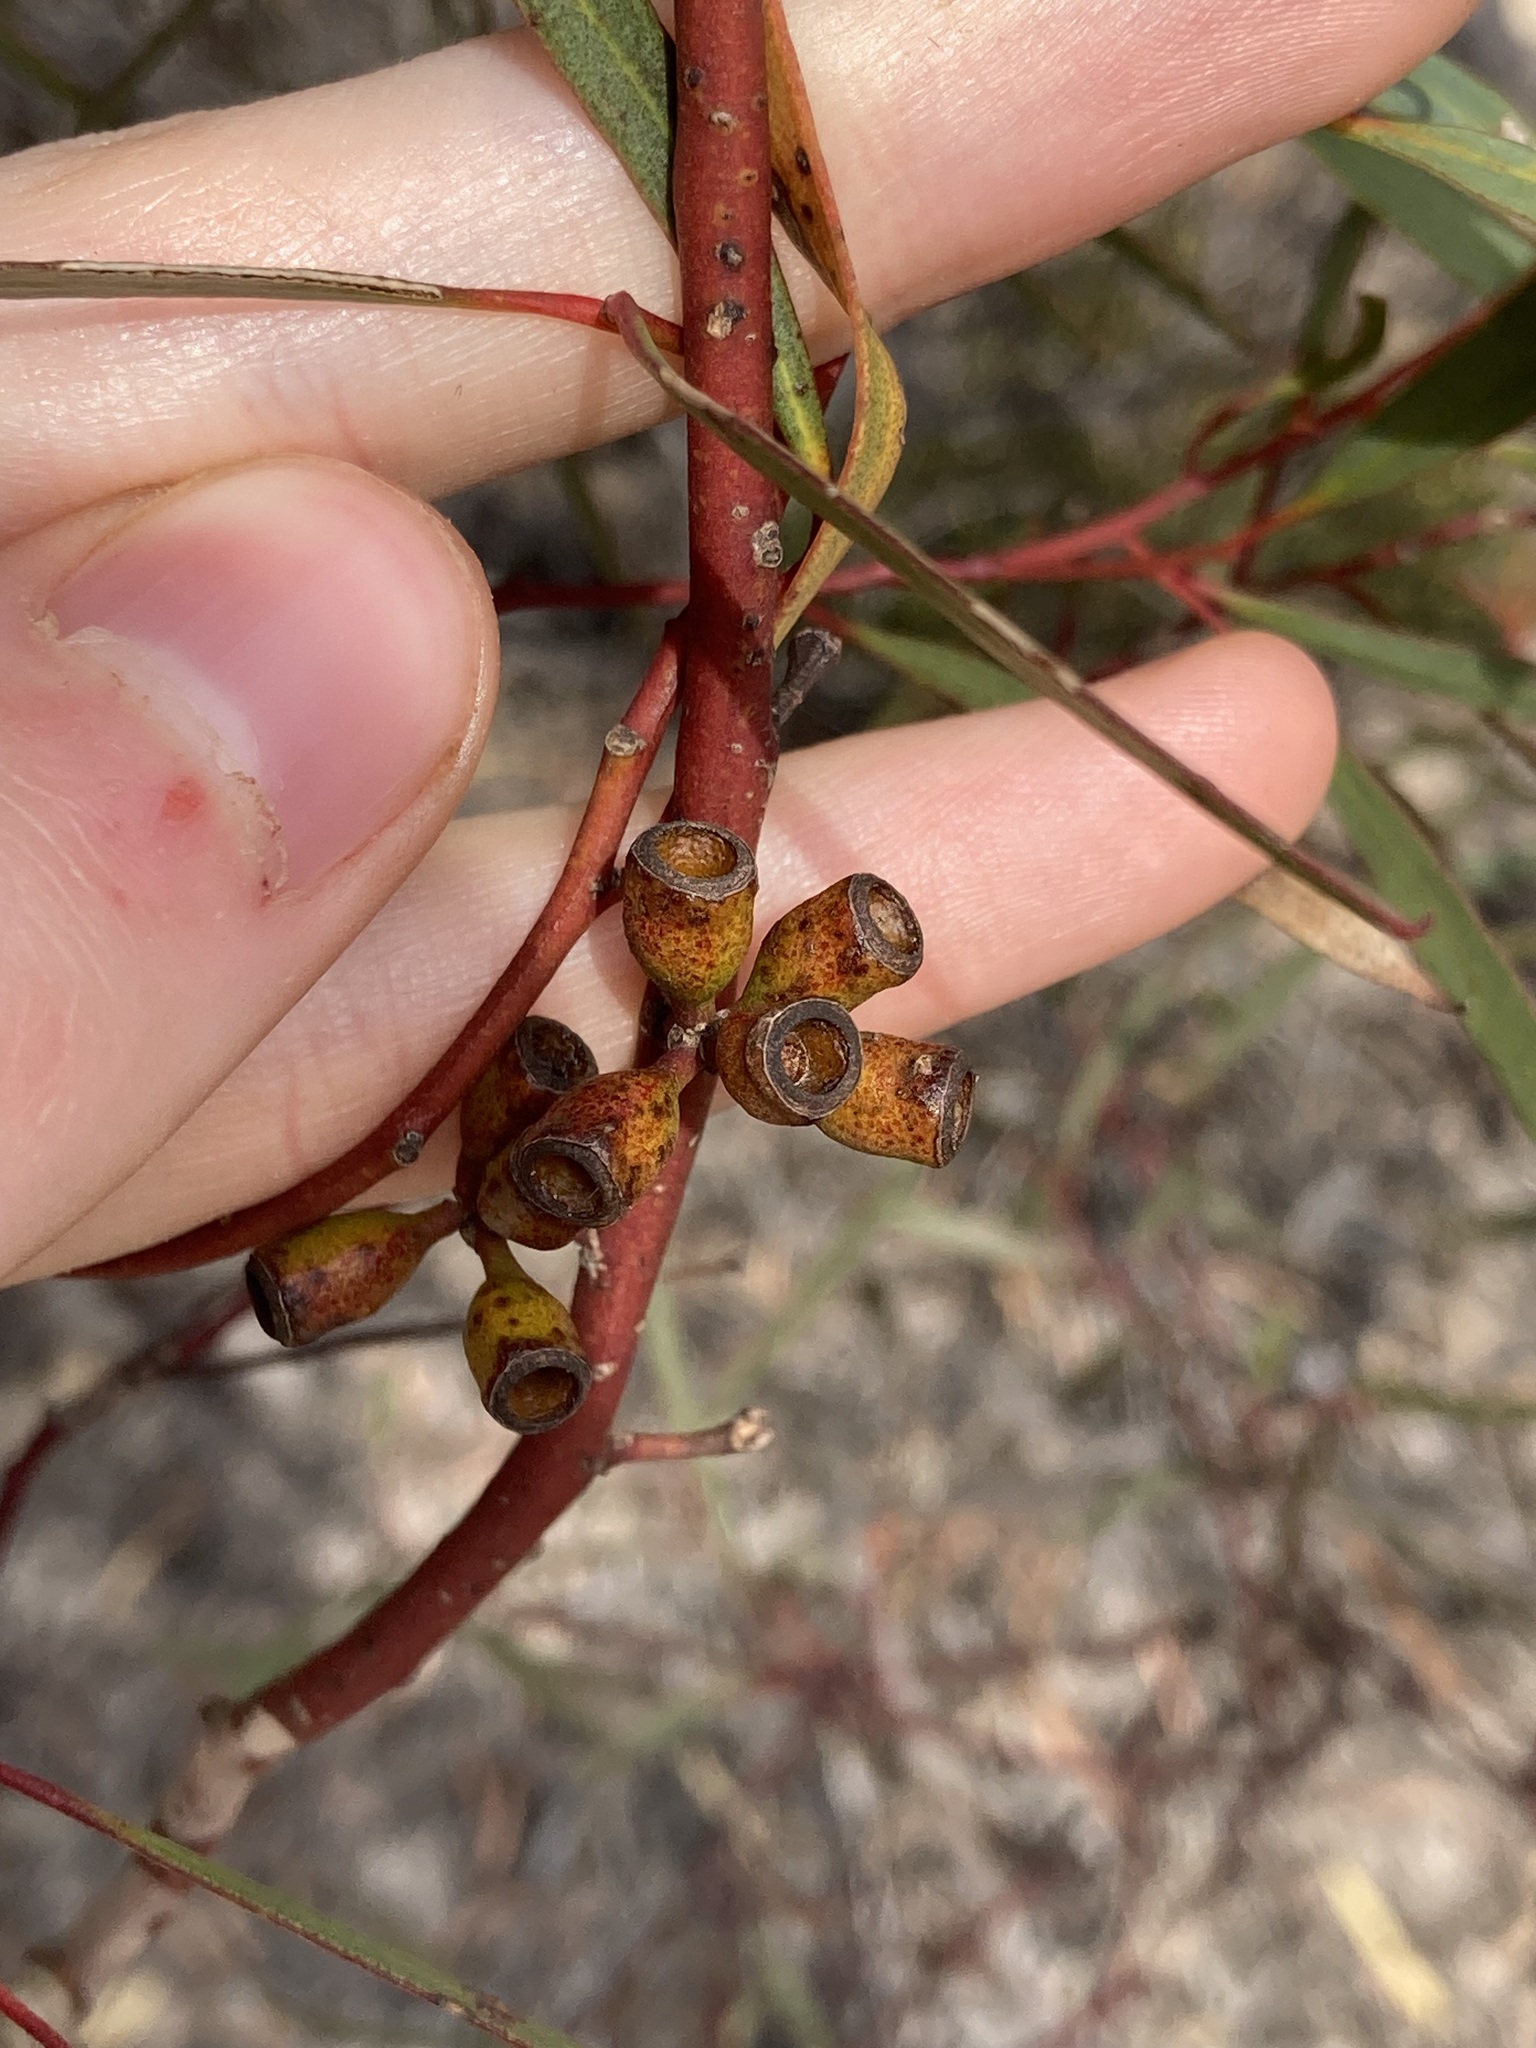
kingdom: Plantae
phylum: Tracheophyta
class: Magnoliopsida
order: Myrtales
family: Myrtaceae
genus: Eucalyptus
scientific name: Eucalyptus calycogona
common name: Marvel mallee
